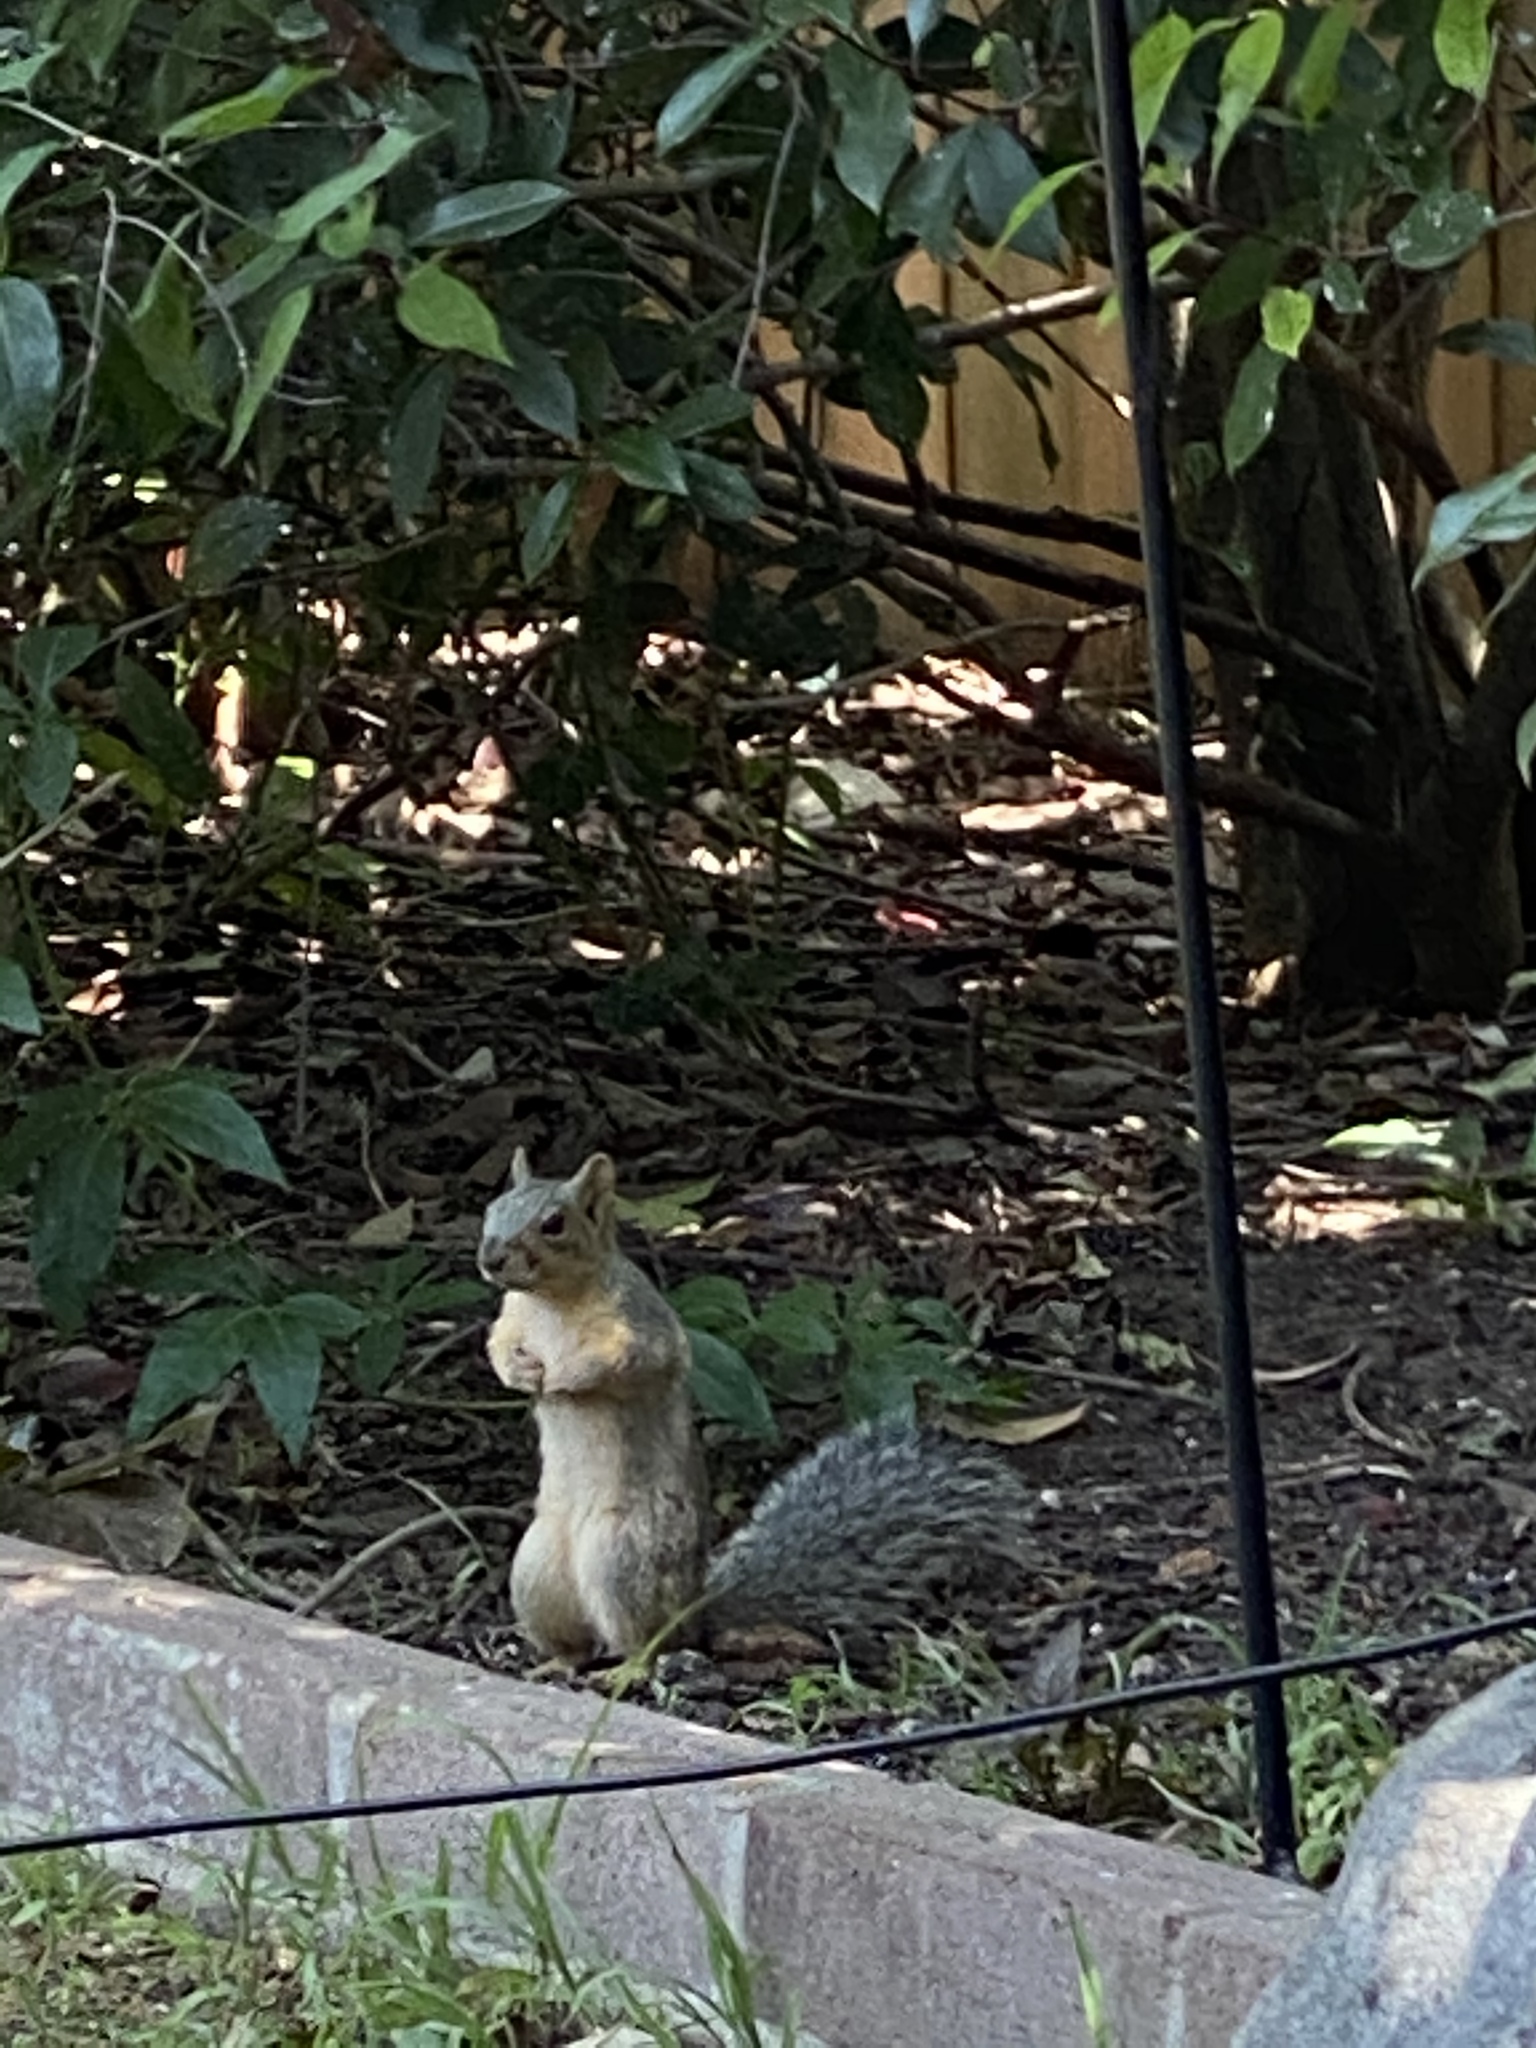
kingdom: Animalia
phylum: Chordata
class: Mammalia
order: Rodentia
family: Sciuridae
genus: Sciurus
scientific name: Sciurus niger
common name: Fox squirrel
